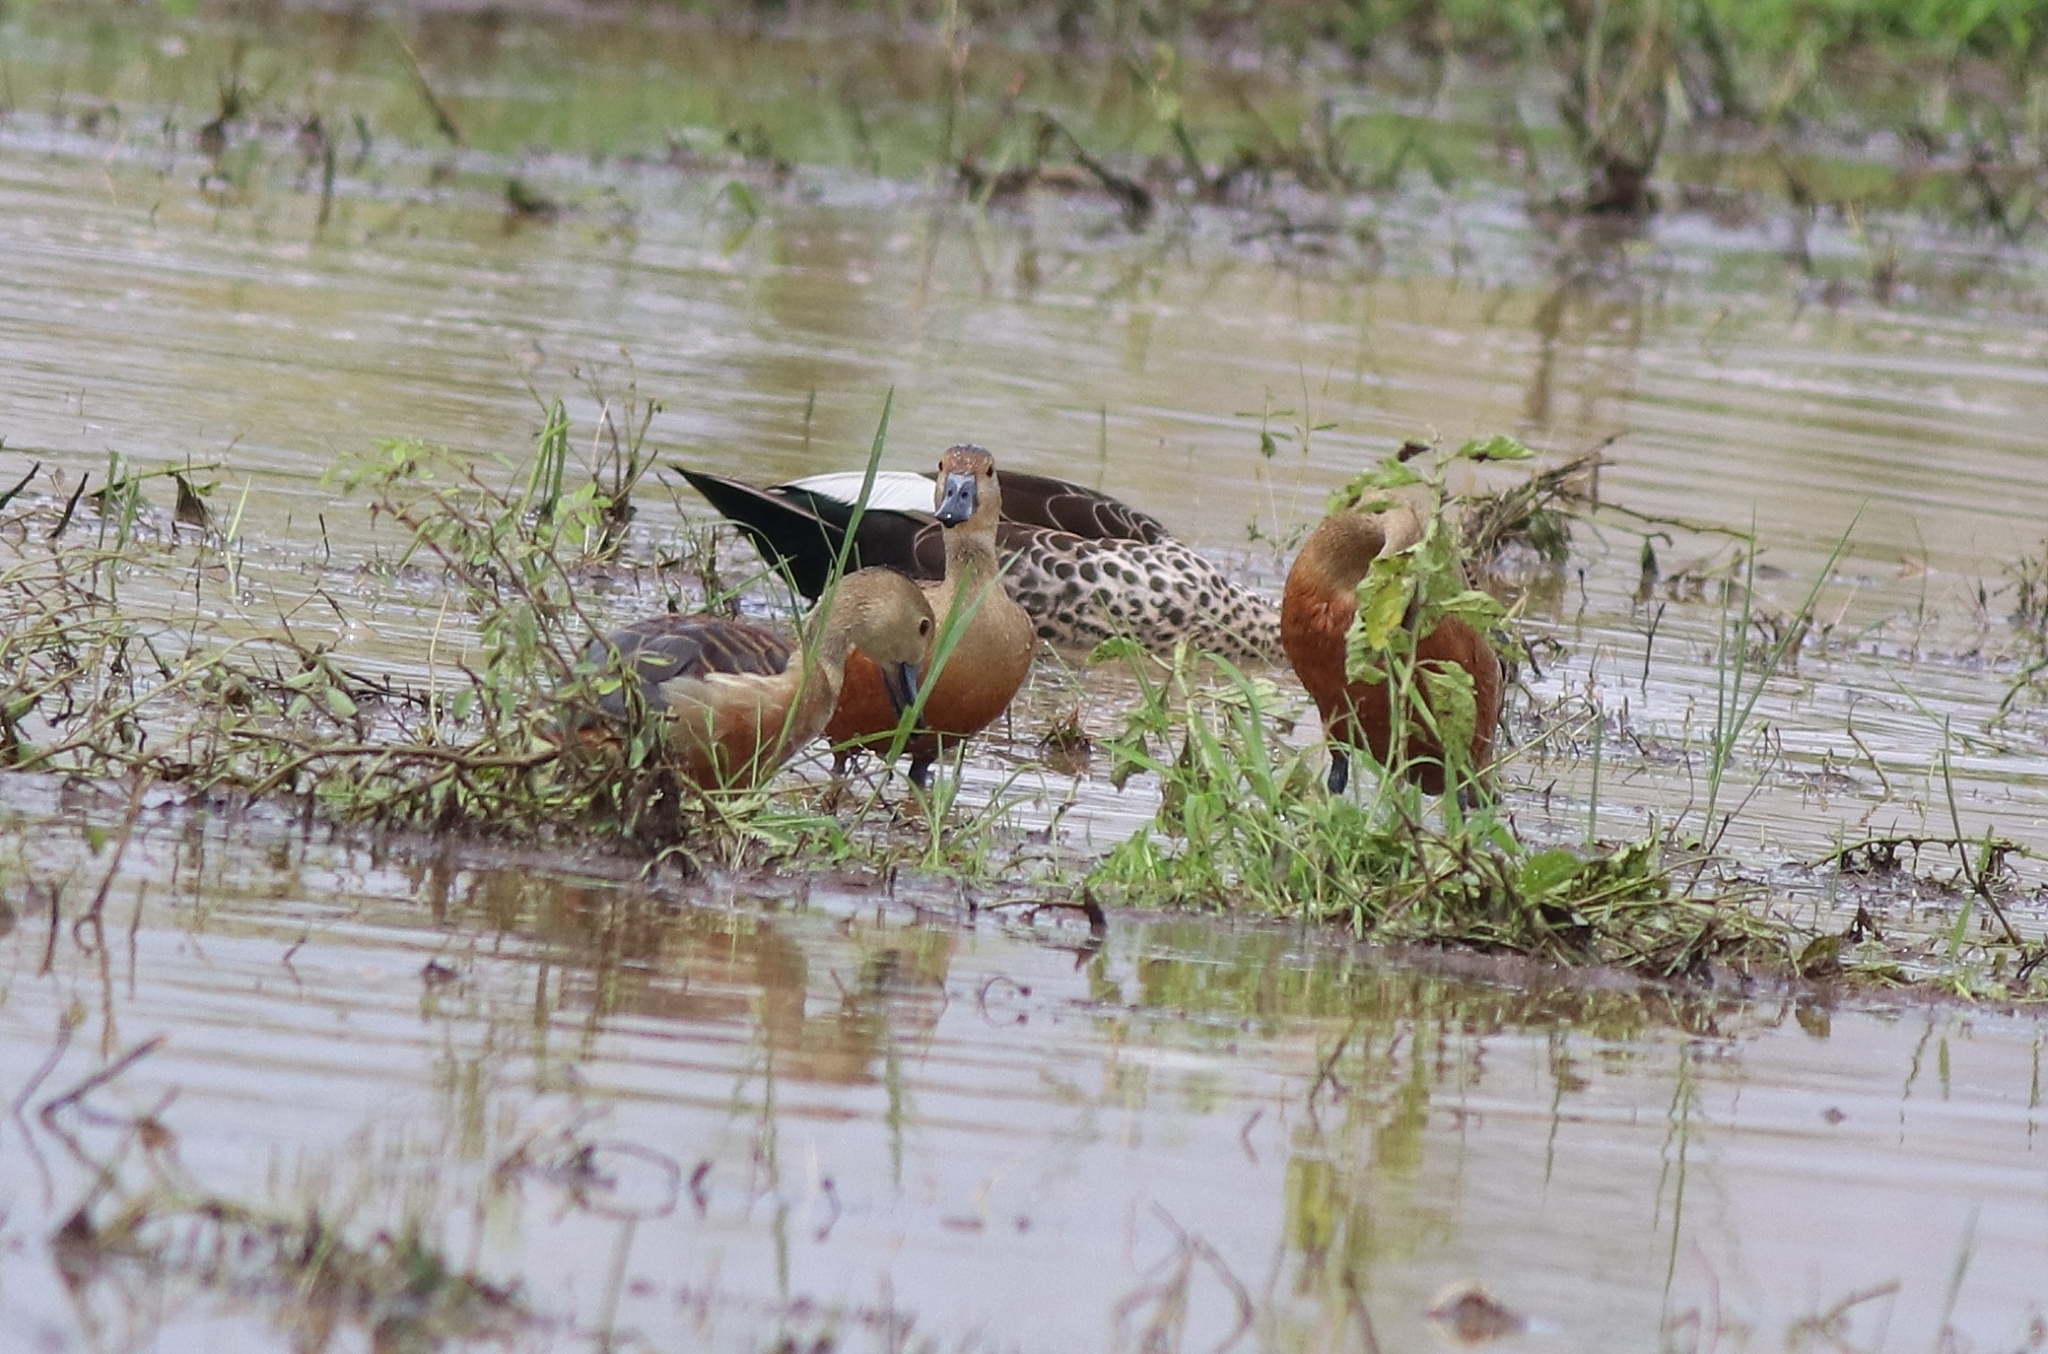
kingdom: Animalia
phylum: Chordata
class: Aves
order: Anseriformes
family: Anatidae
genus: Dendrocygna
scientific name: Dendrocygna javanica
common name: Lesser whistling-duck
